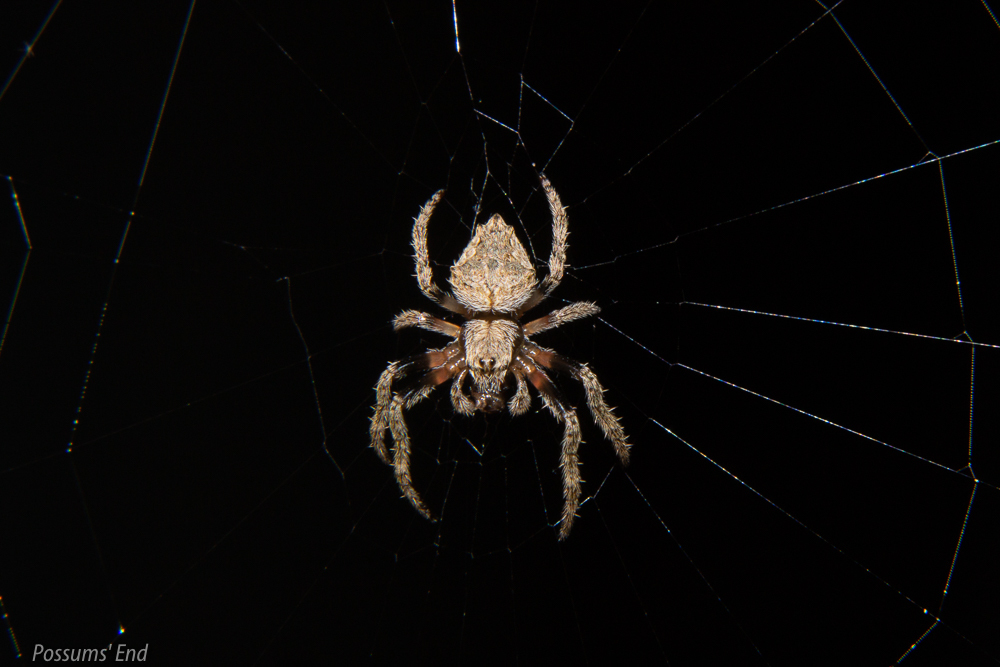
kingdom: Animalia
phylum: Arthropoda
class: Arachnida
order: Araneae
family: Araneidae
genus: Eriophora
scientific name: Eriophora pustulosa
